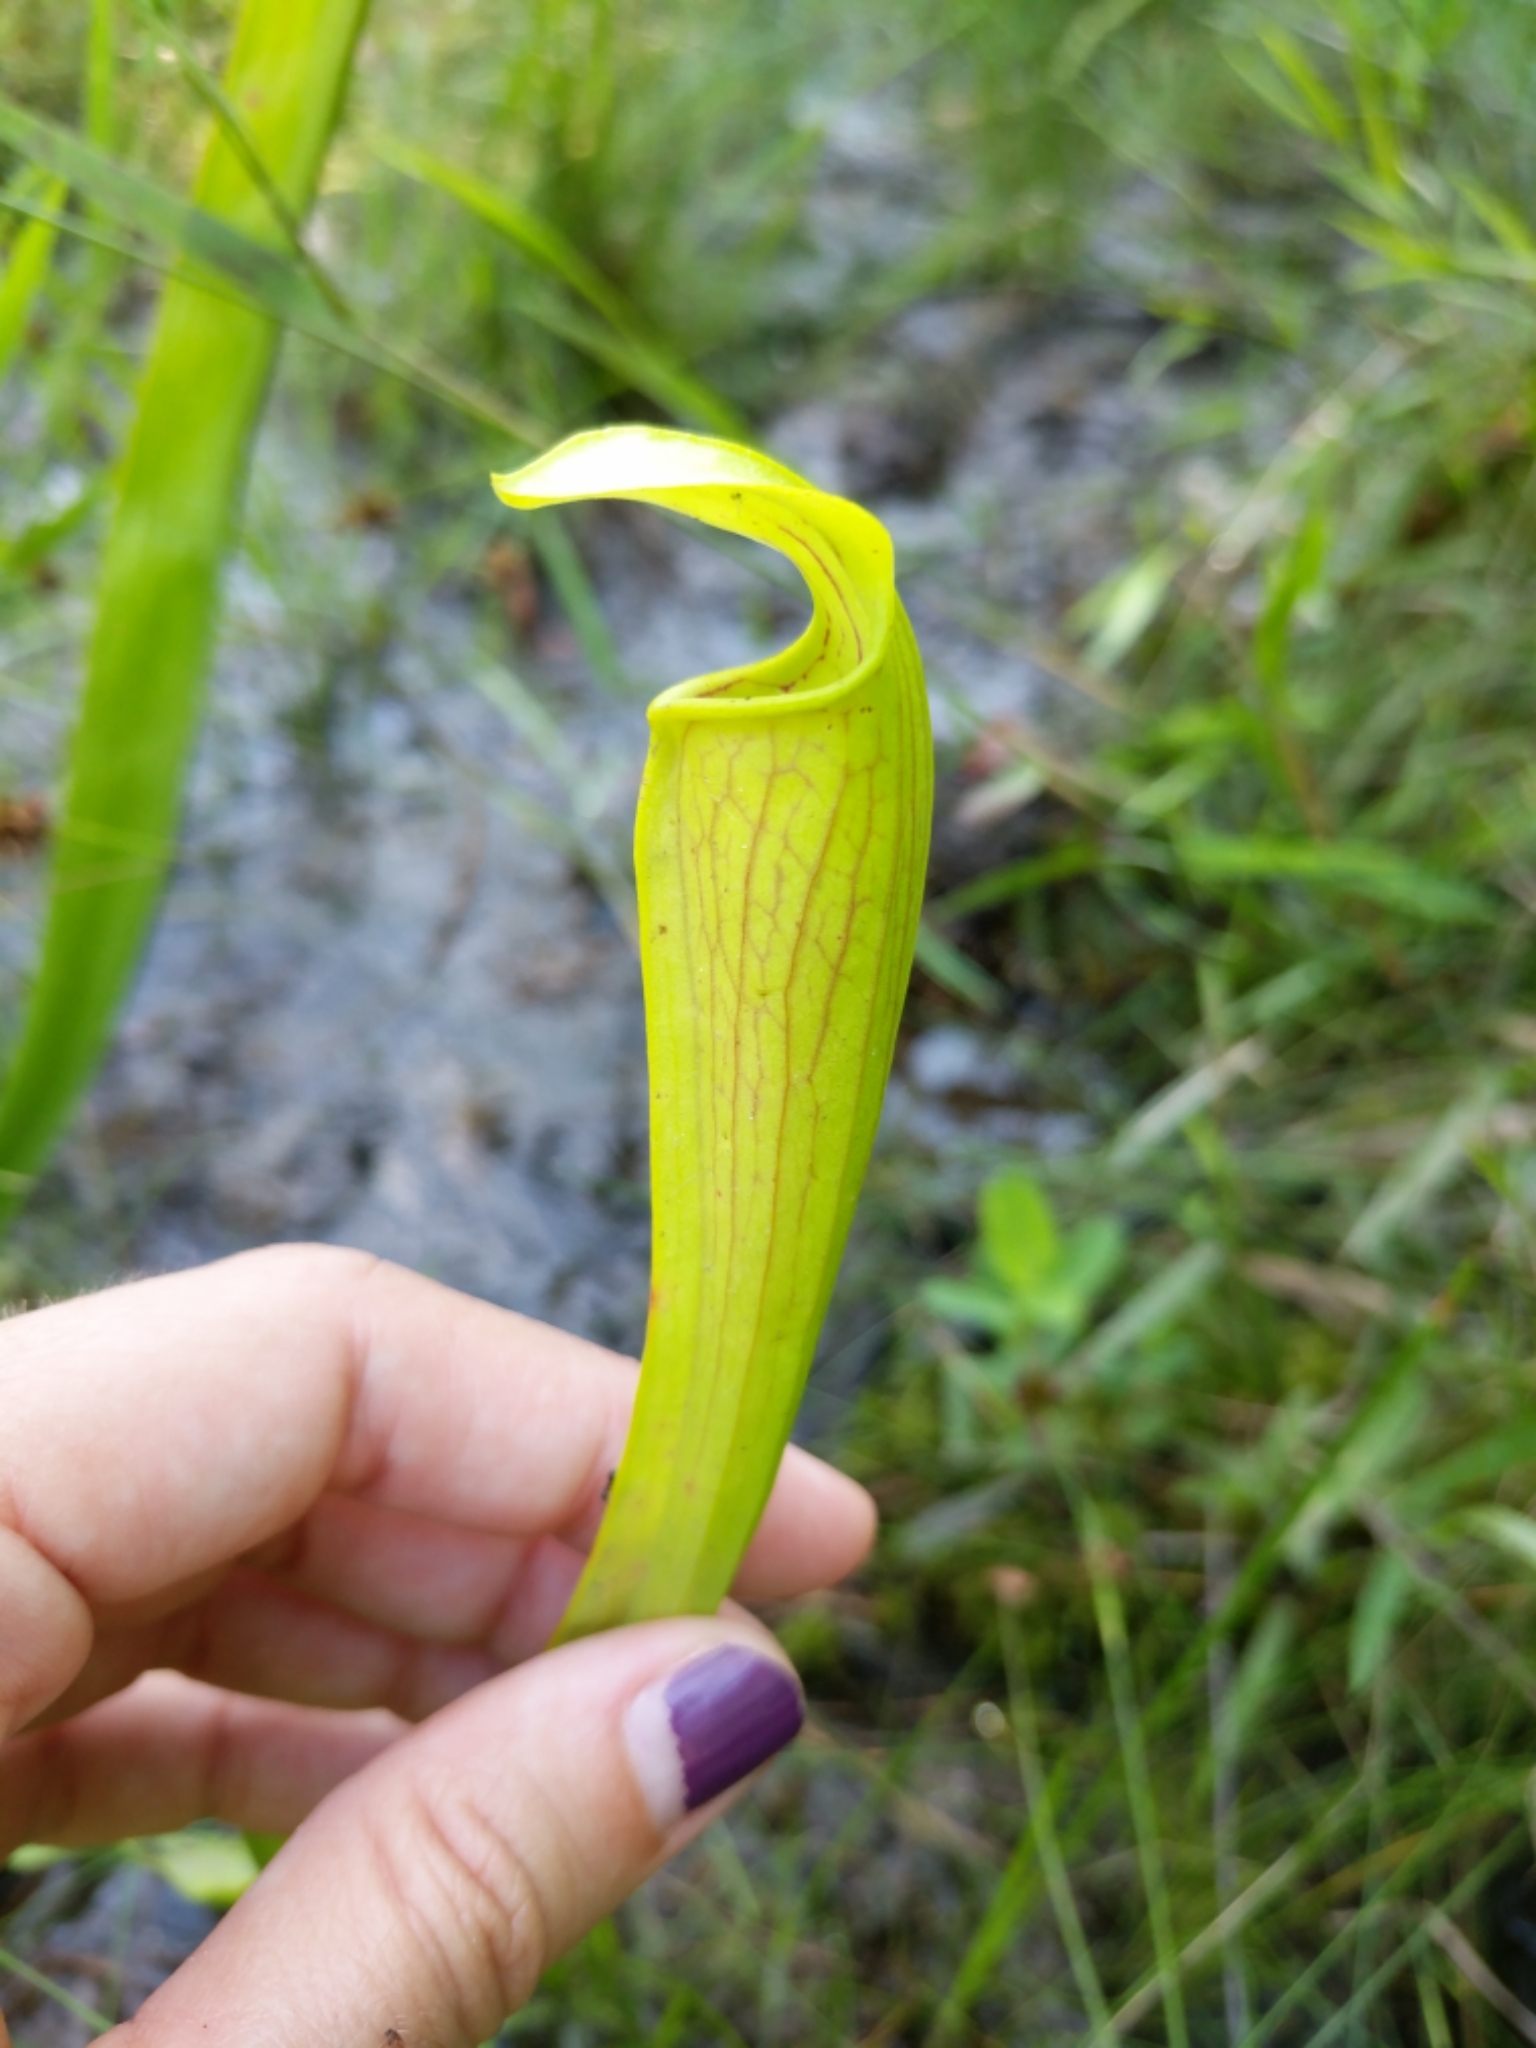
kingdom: Plantae
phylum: Tracheophyta
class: Magnoliopsida
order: Ericales
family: Sarraceniaceae
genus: Sarracenia
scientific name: Sarracenia alata
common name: Yellow trumpets
